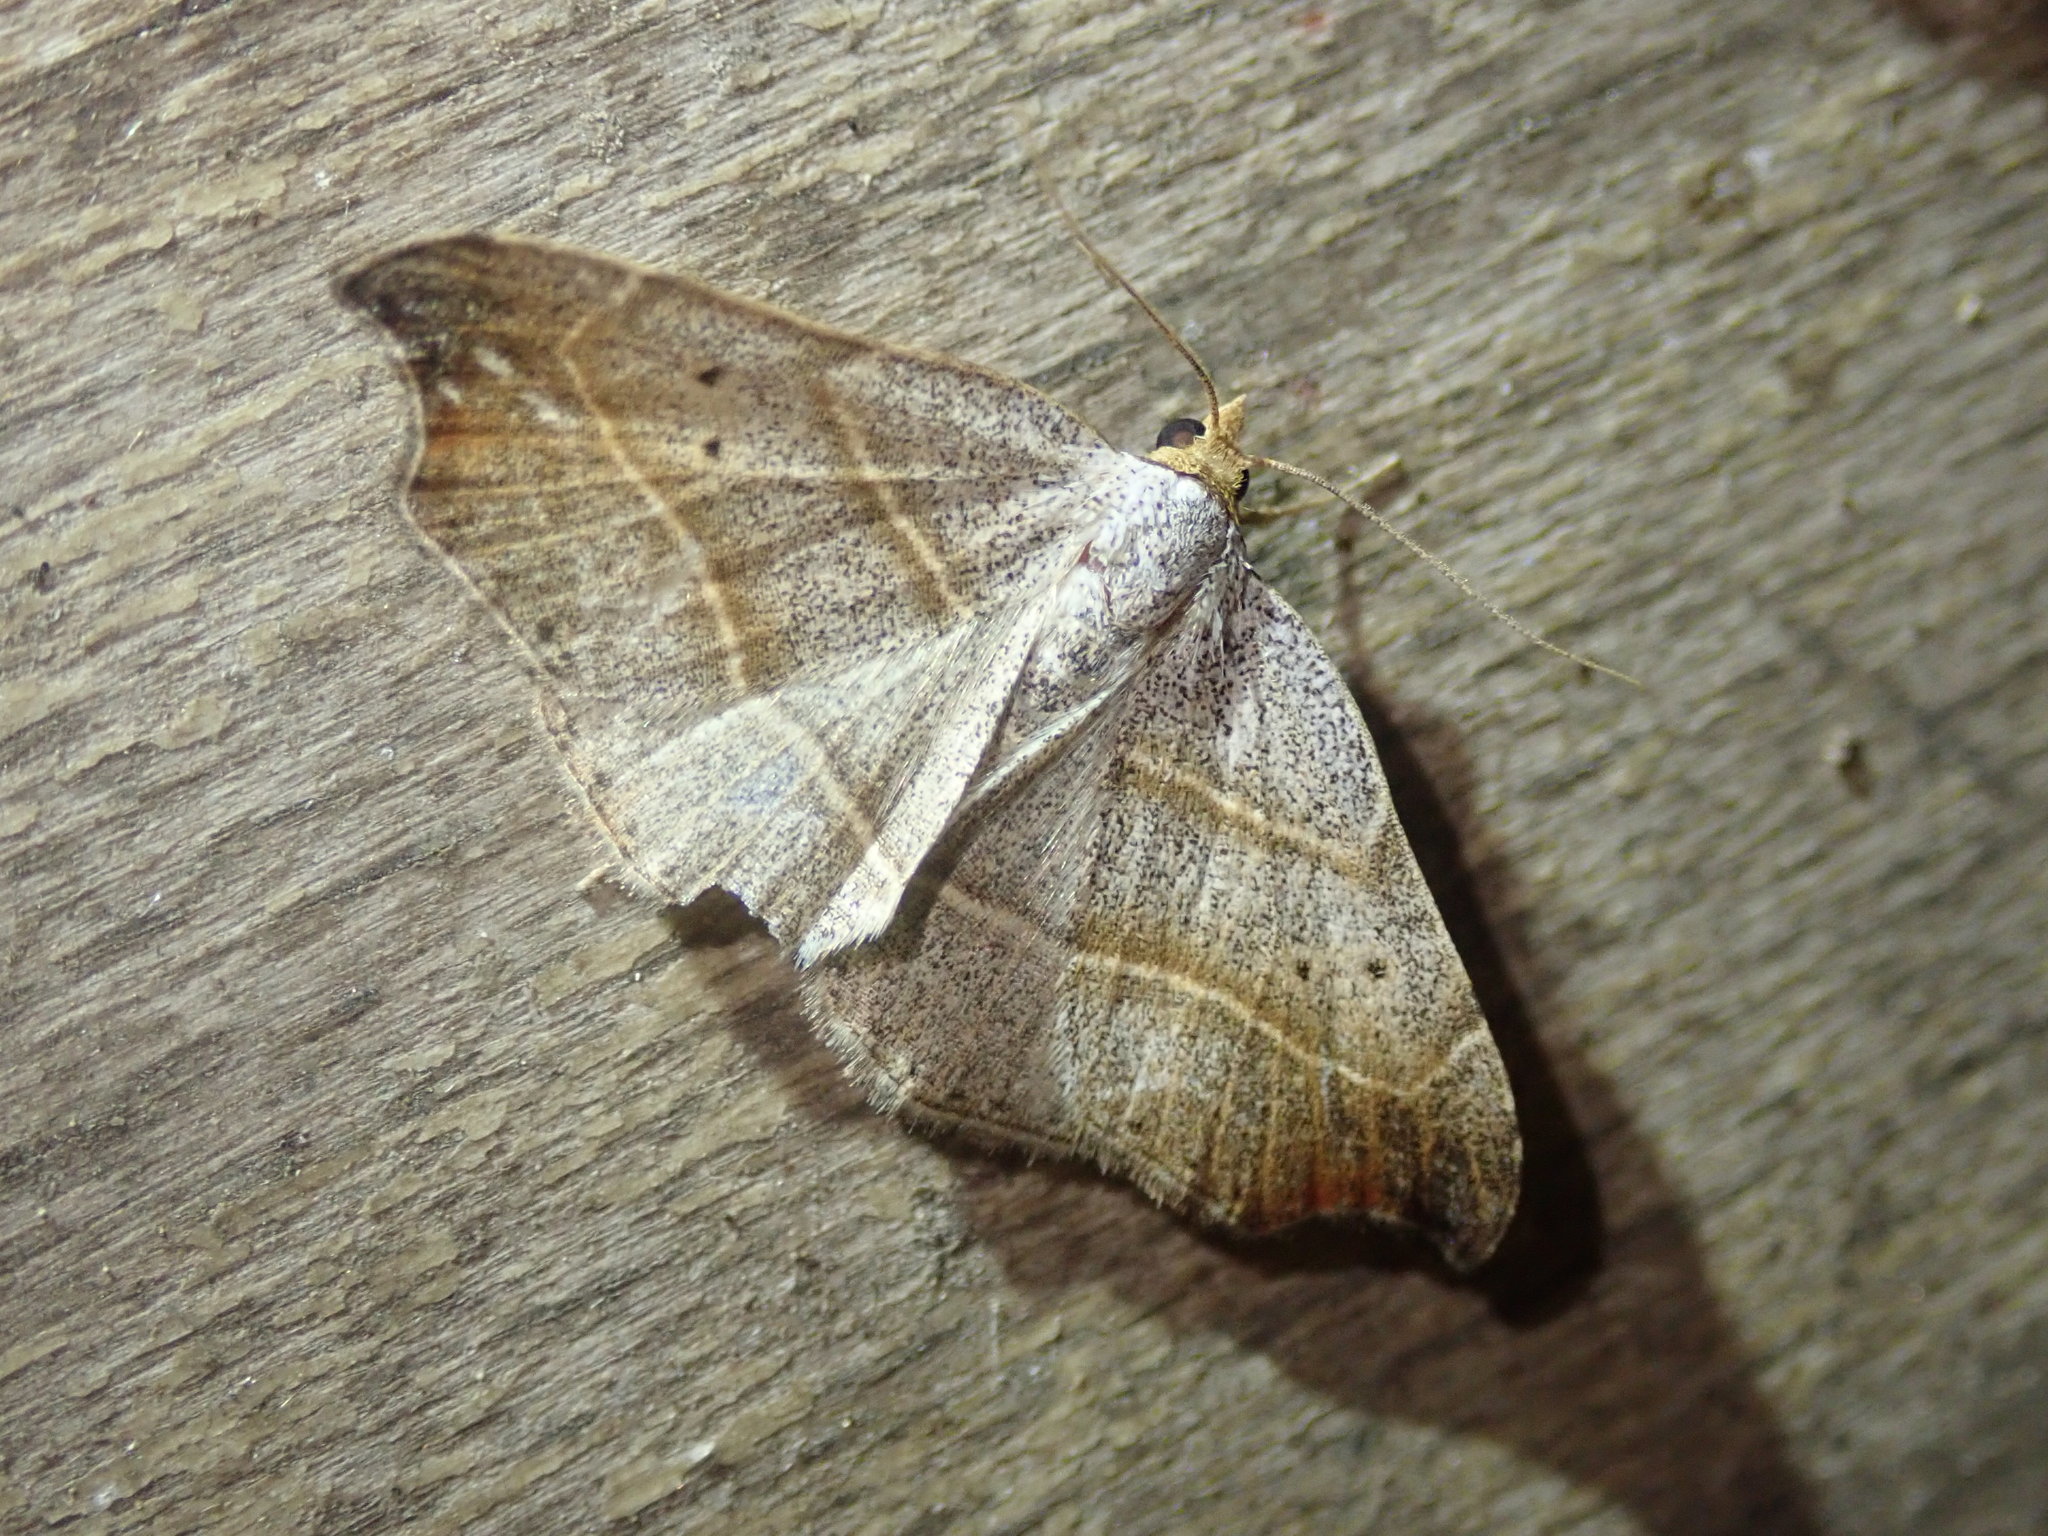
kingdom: Animalia
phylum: Arthropoda
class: Insecta
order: Lepidoptera
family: Erebidae
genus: Laspeyria
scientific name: Laspeyria flexula
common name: Beautiful hook-tip
